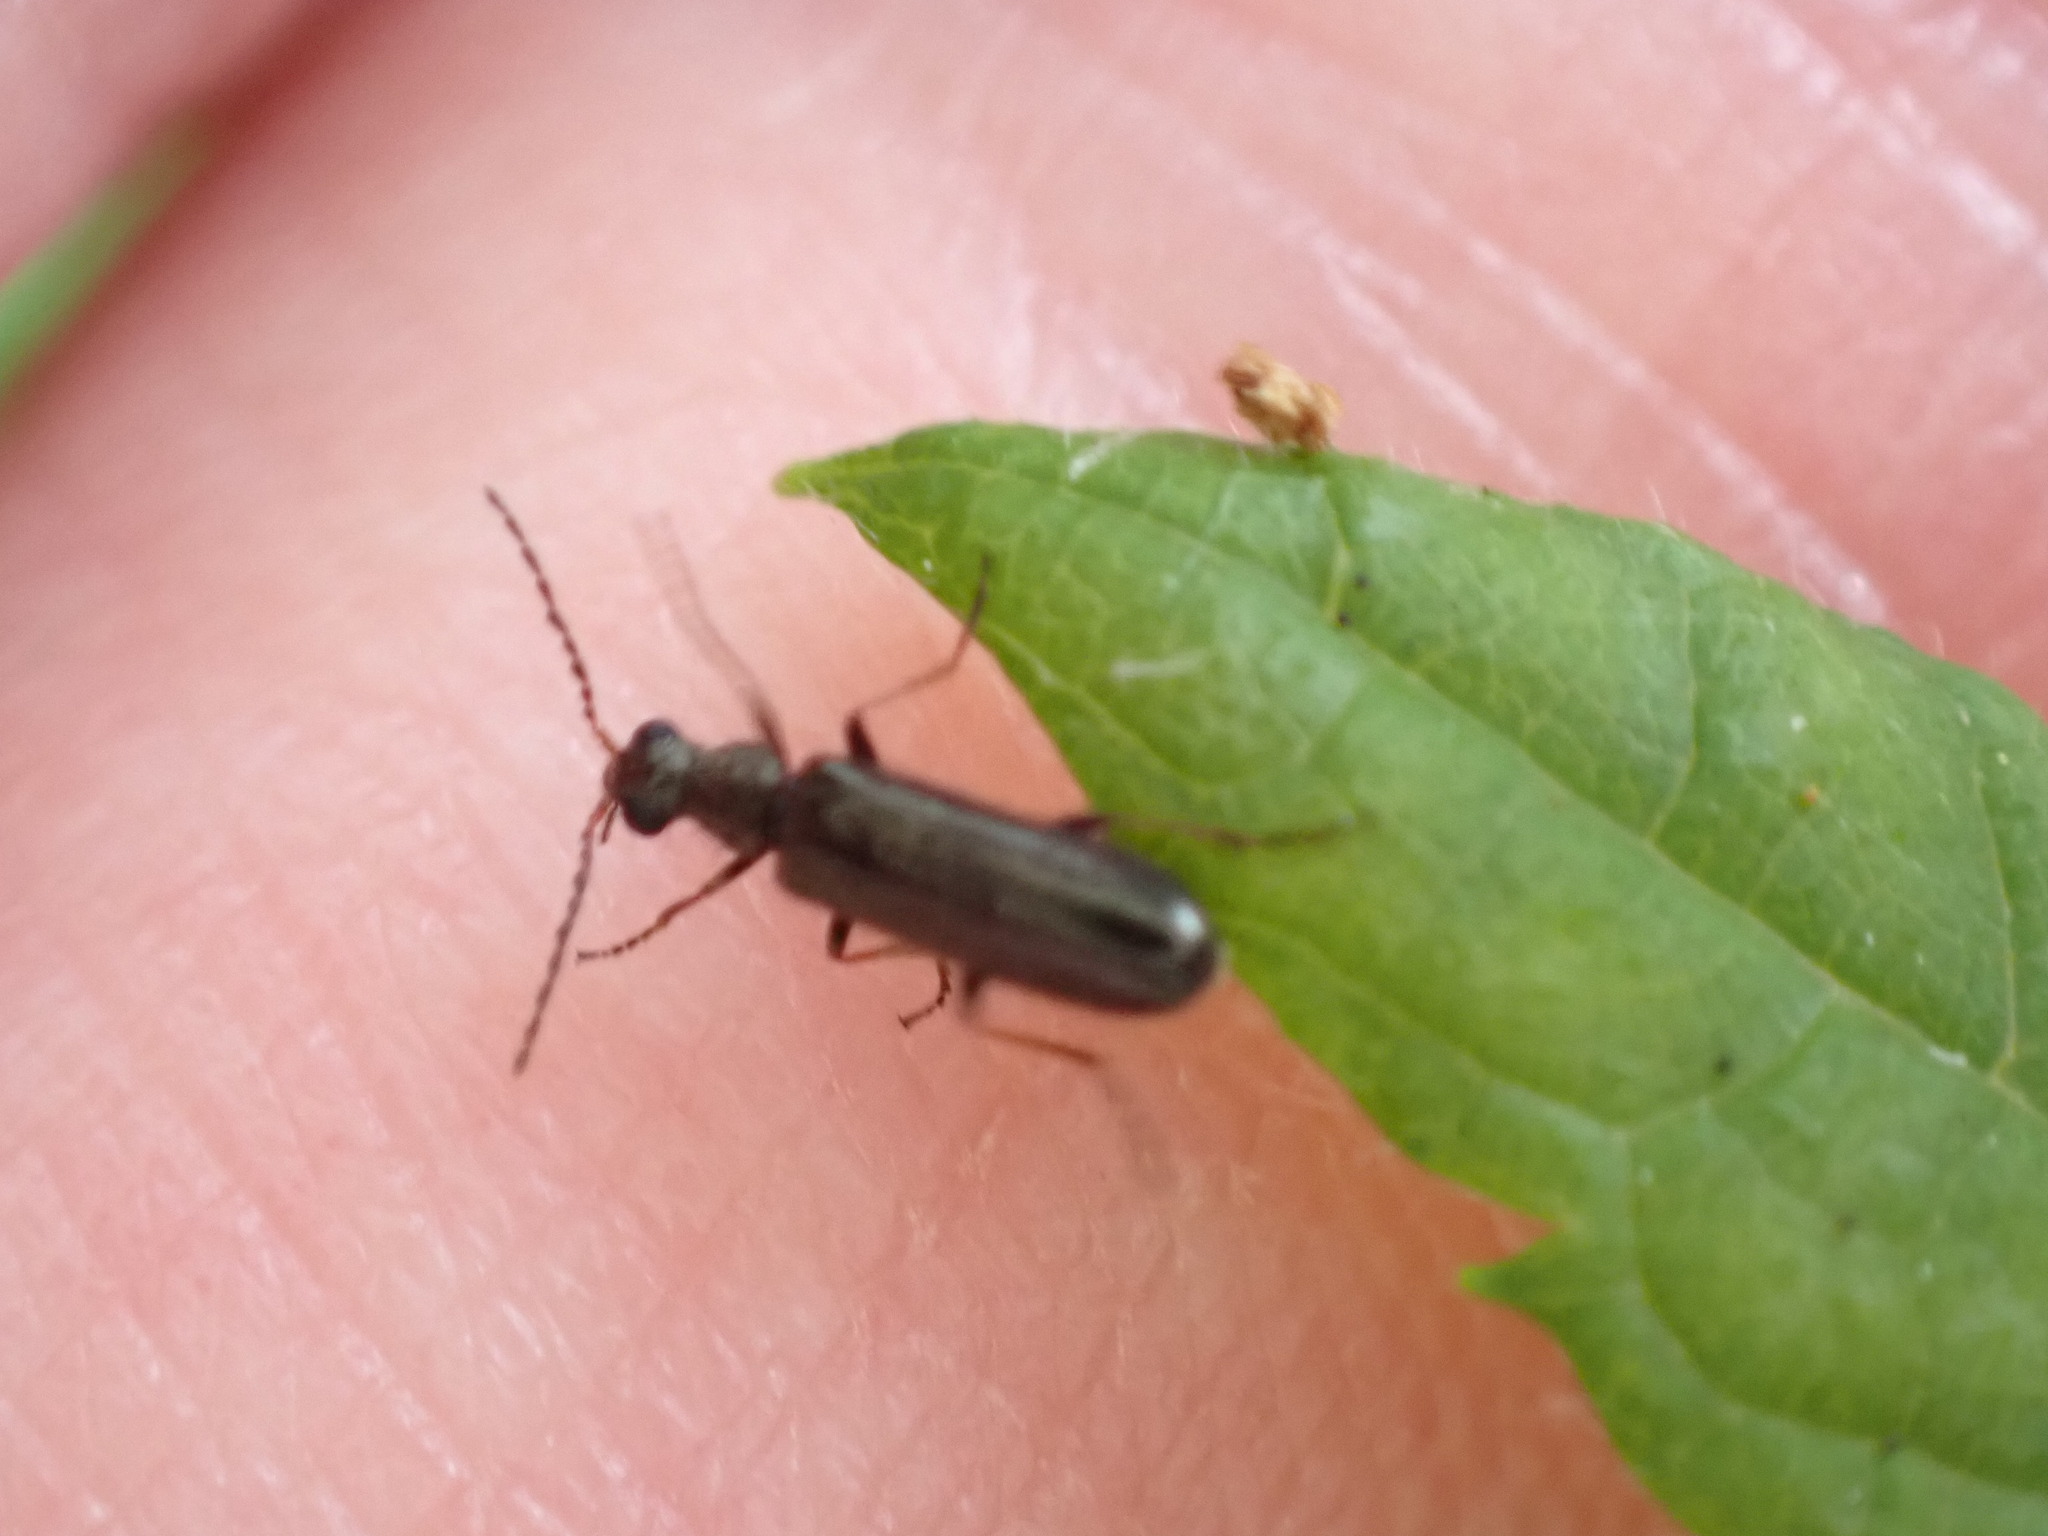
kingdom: Animalia
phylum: Arthropoda
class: Insecta
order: Coleoptera
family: Melyridae
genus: Dasytes
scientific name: Dasytes plumbeus
